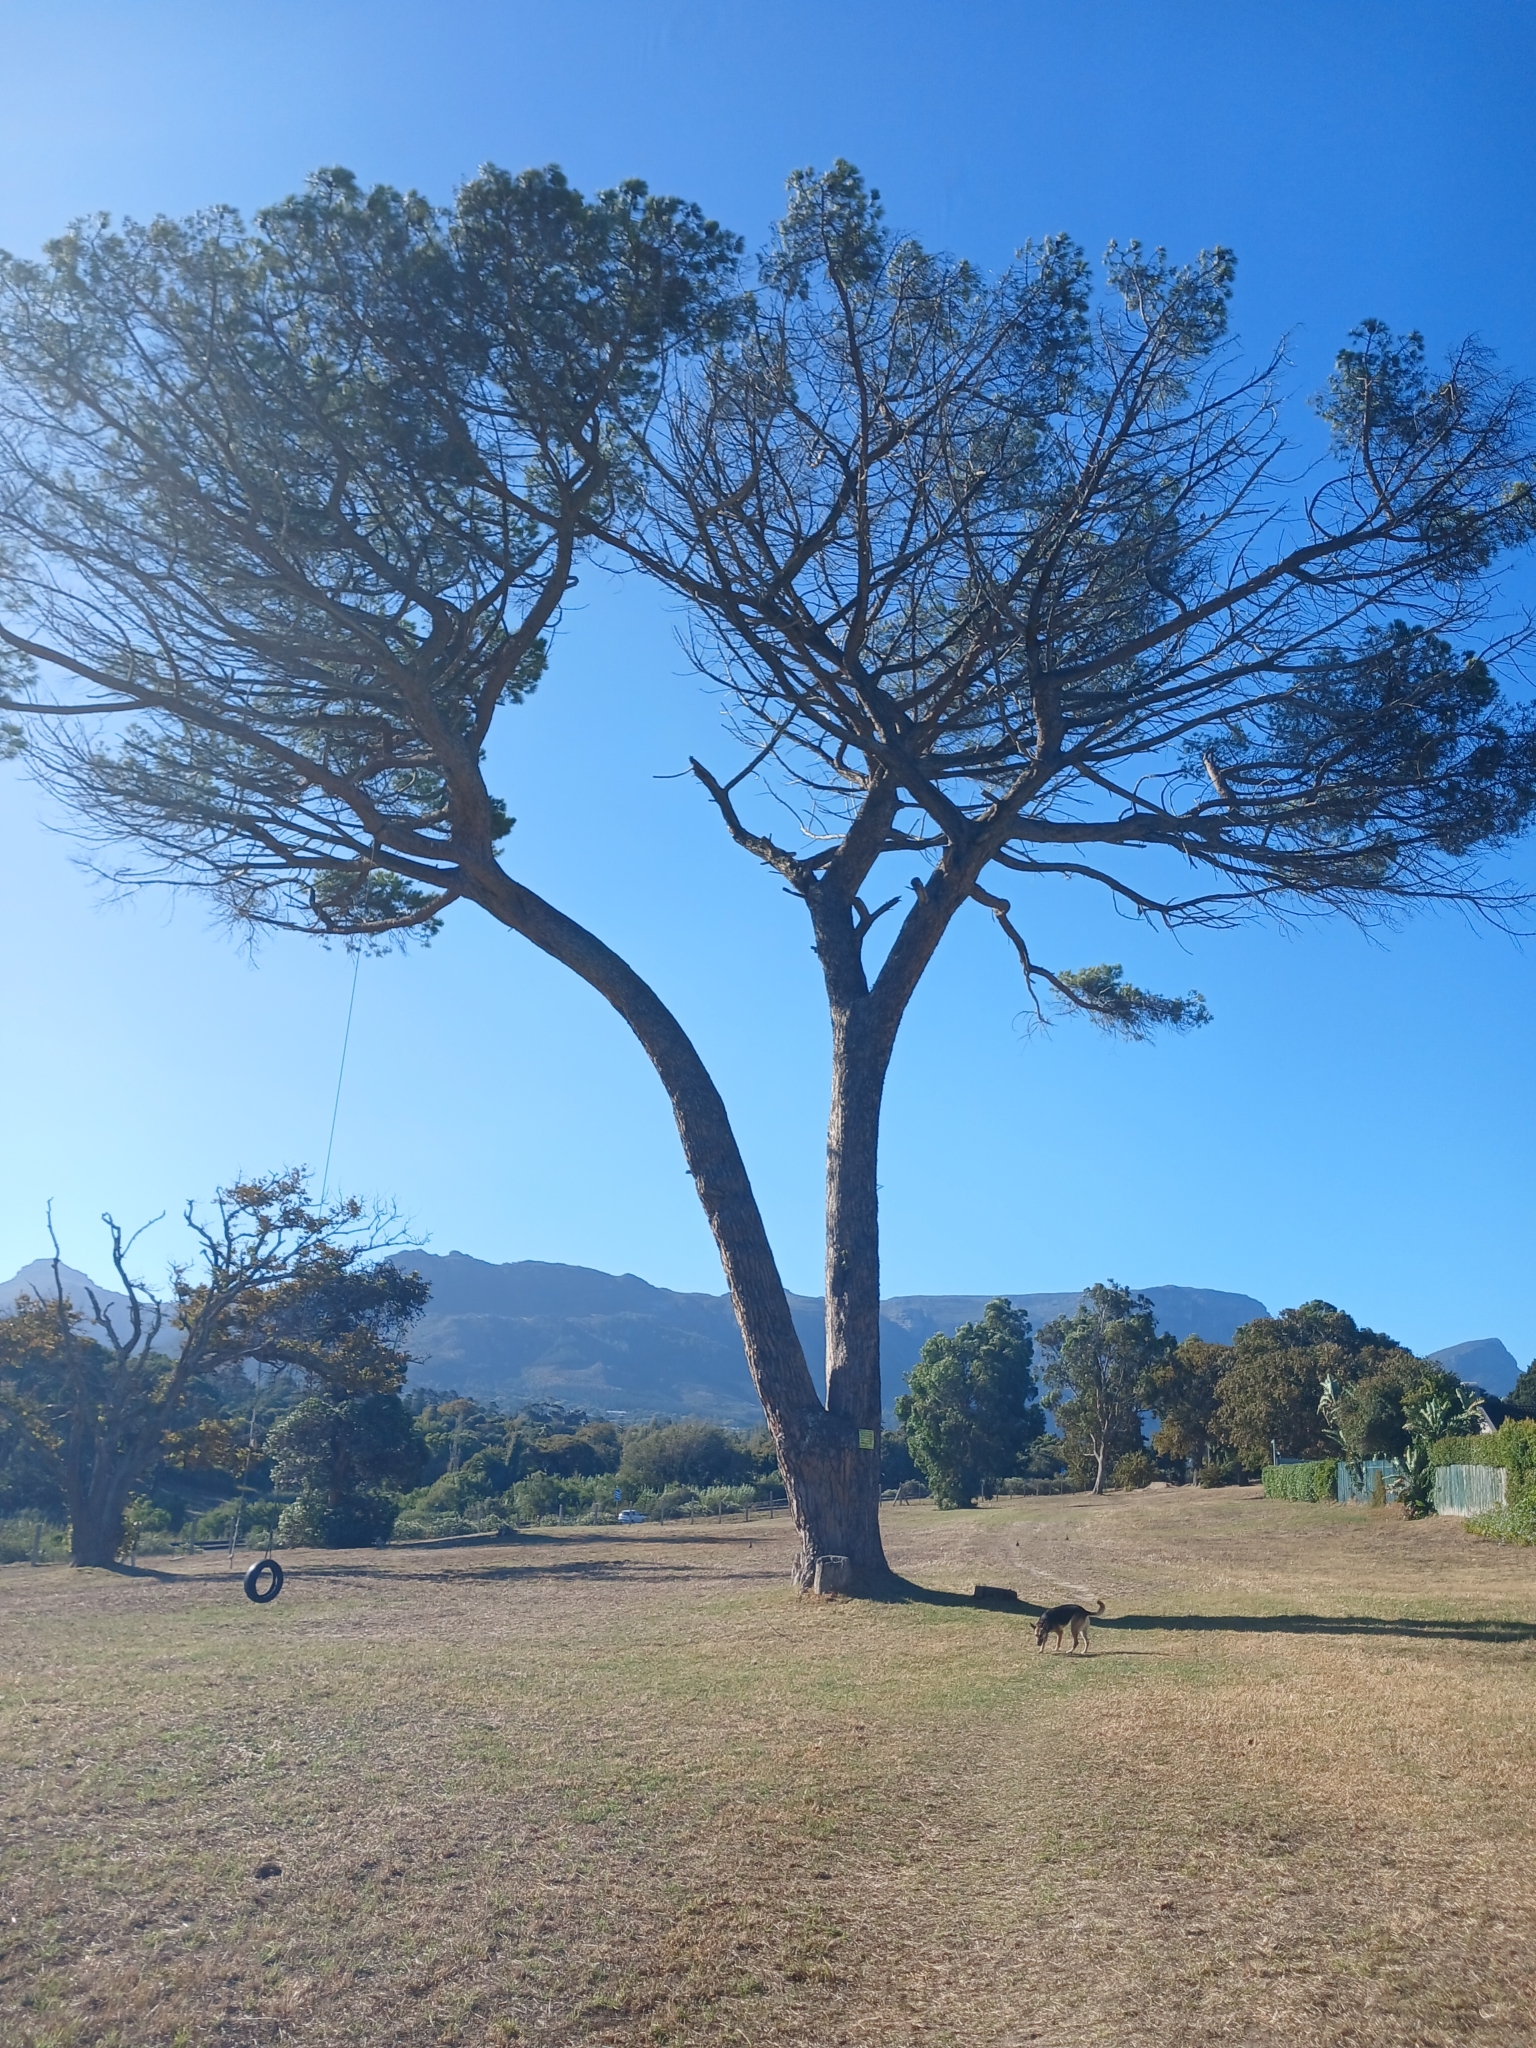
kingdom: Plantae
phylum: Tracheophyta
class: Pinopsida
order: Pinales
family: Pinaceae
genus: Pinus
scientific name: Pinus pinea
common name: Italian stone pine
